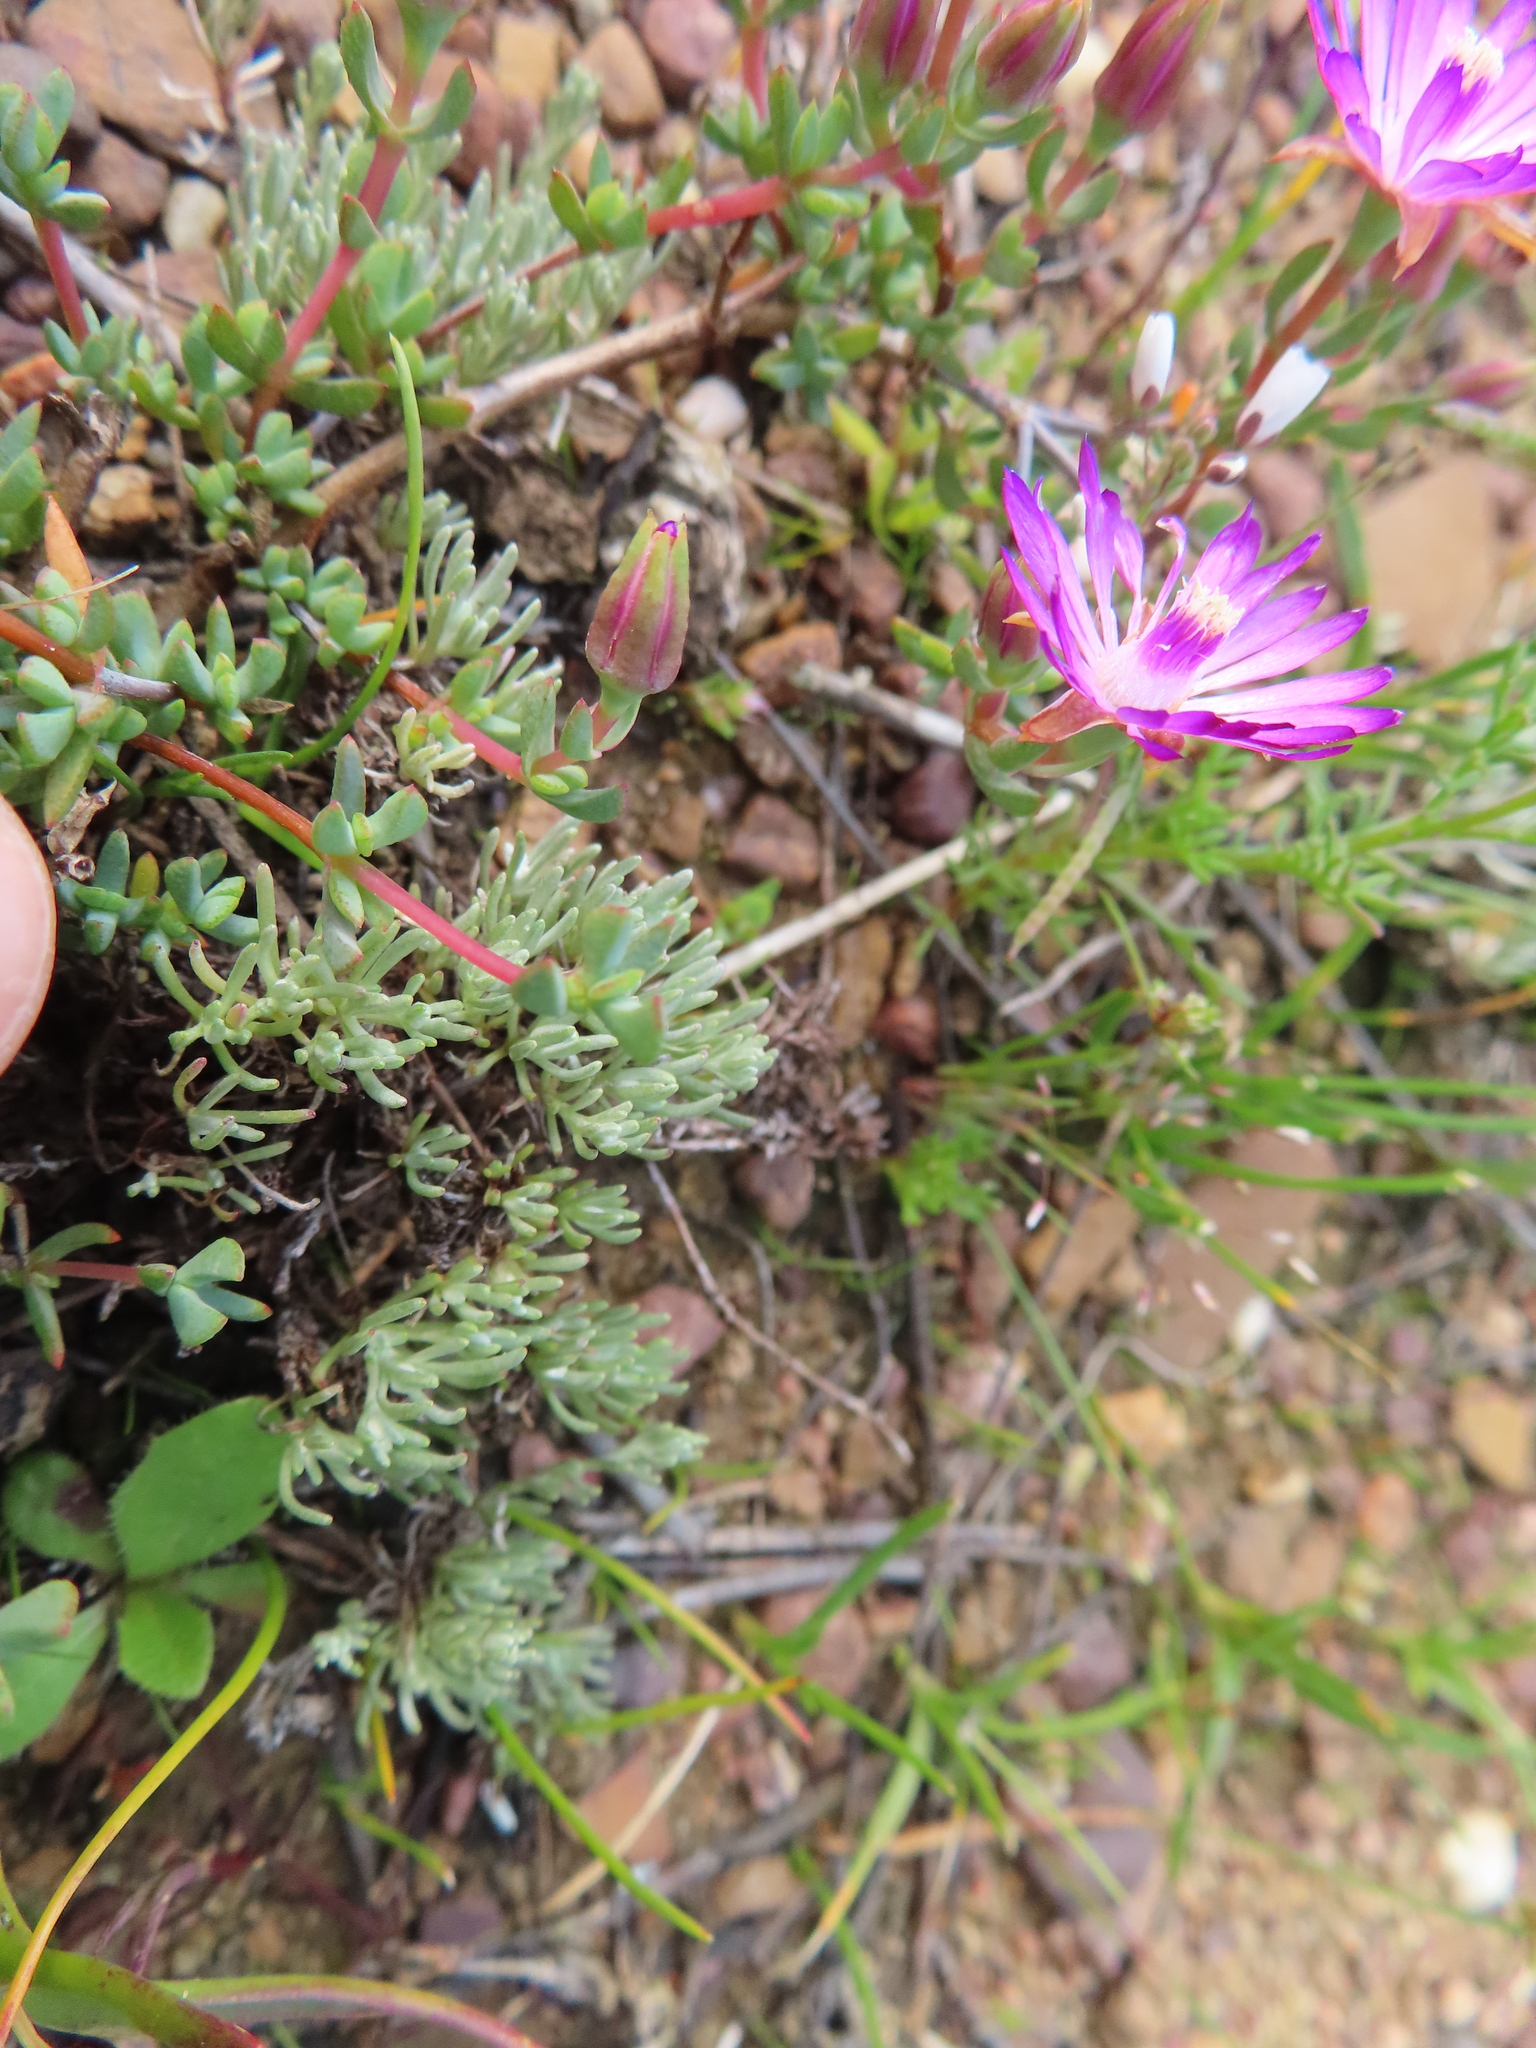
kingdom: Plantae
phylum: Tracheophyta
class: Magnoliopsida
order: Caryophyllales
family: Aizoaceae
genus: Lampranthus
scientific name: Lampranthus leptaleon
